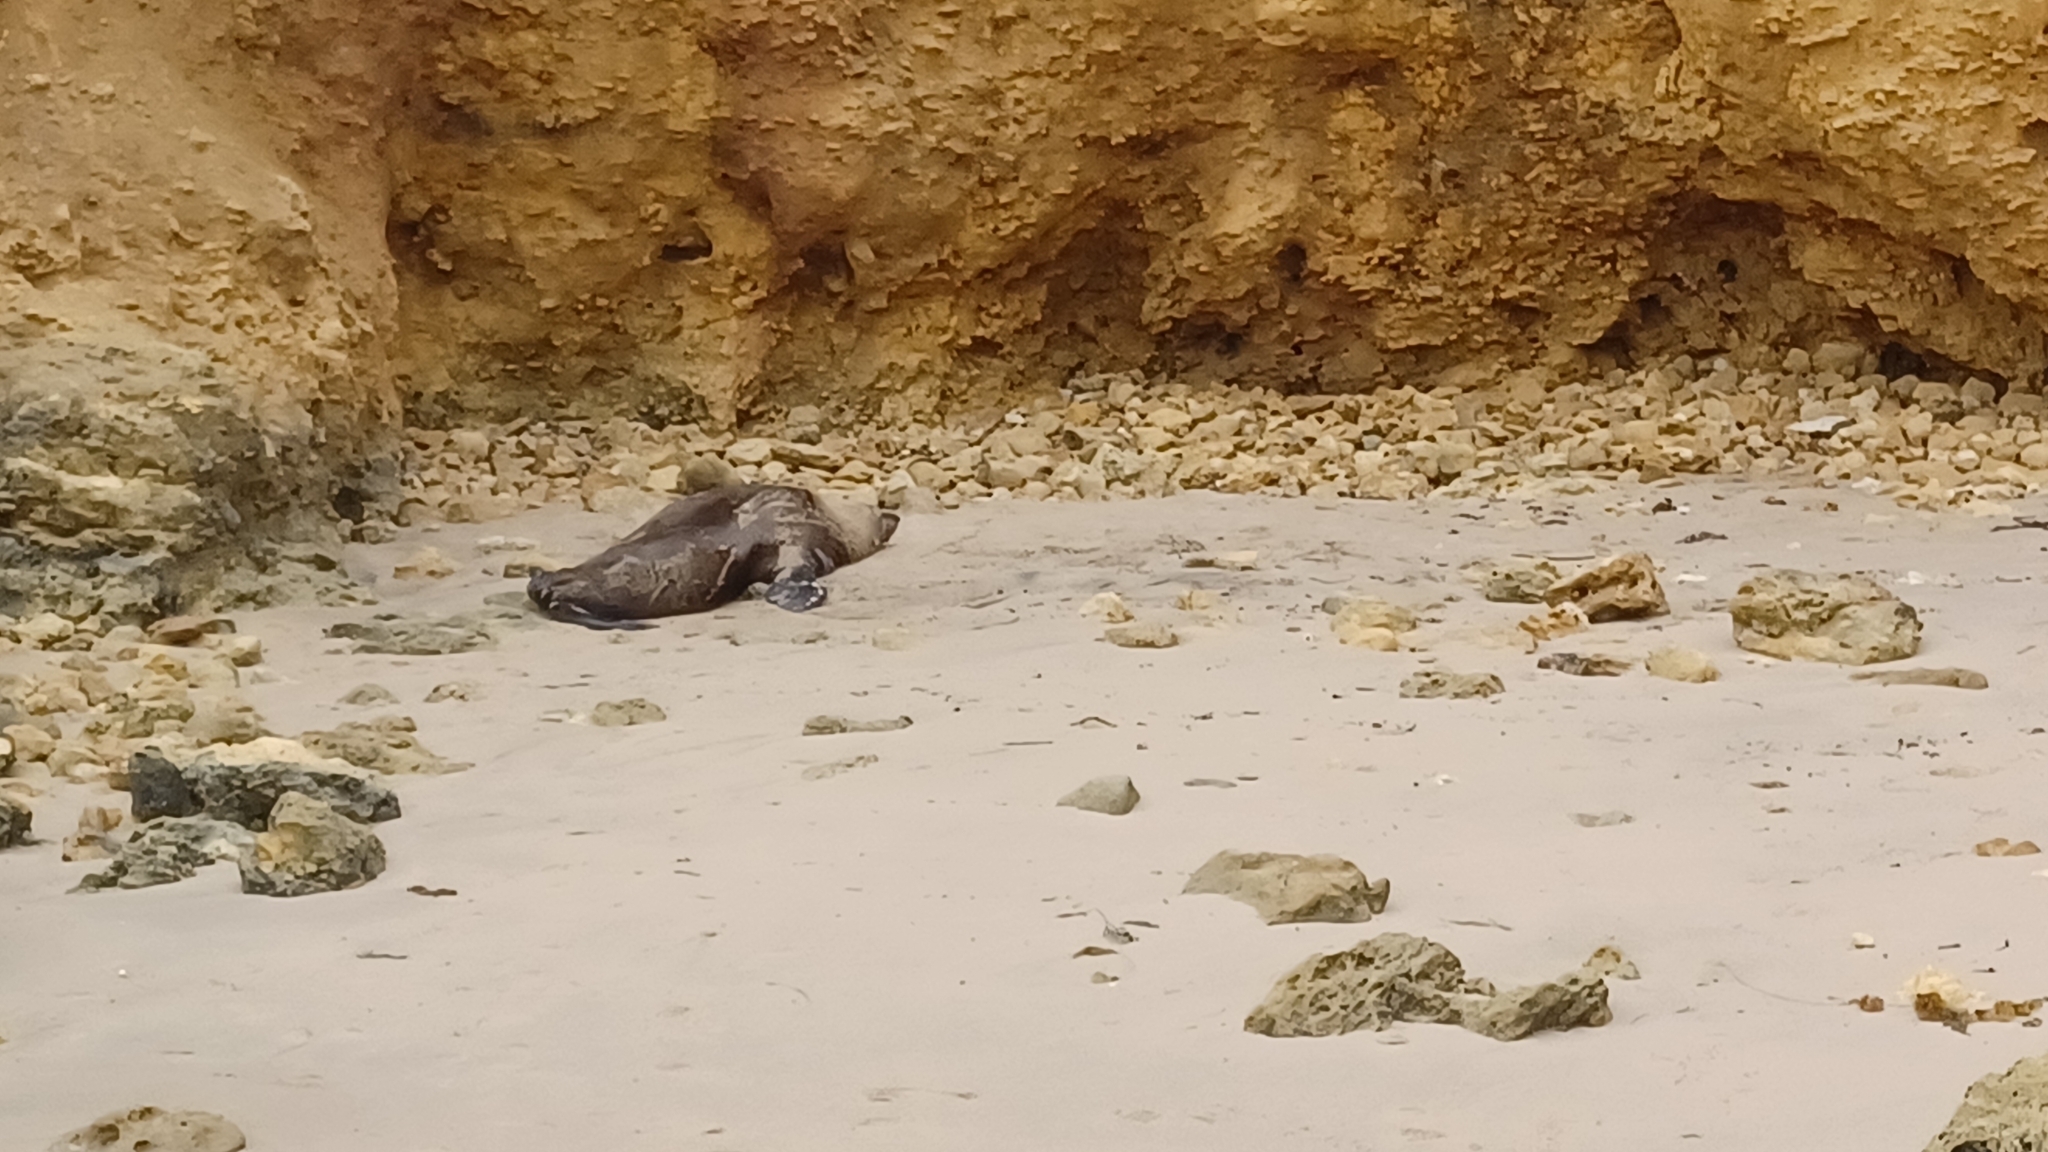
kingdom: Animalia
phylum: Chordata
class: Mammalia
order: Carnivora
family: Otariidae
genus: Arctocephalus
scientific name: Arctocephalus pusillus
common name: Brown fur seal
